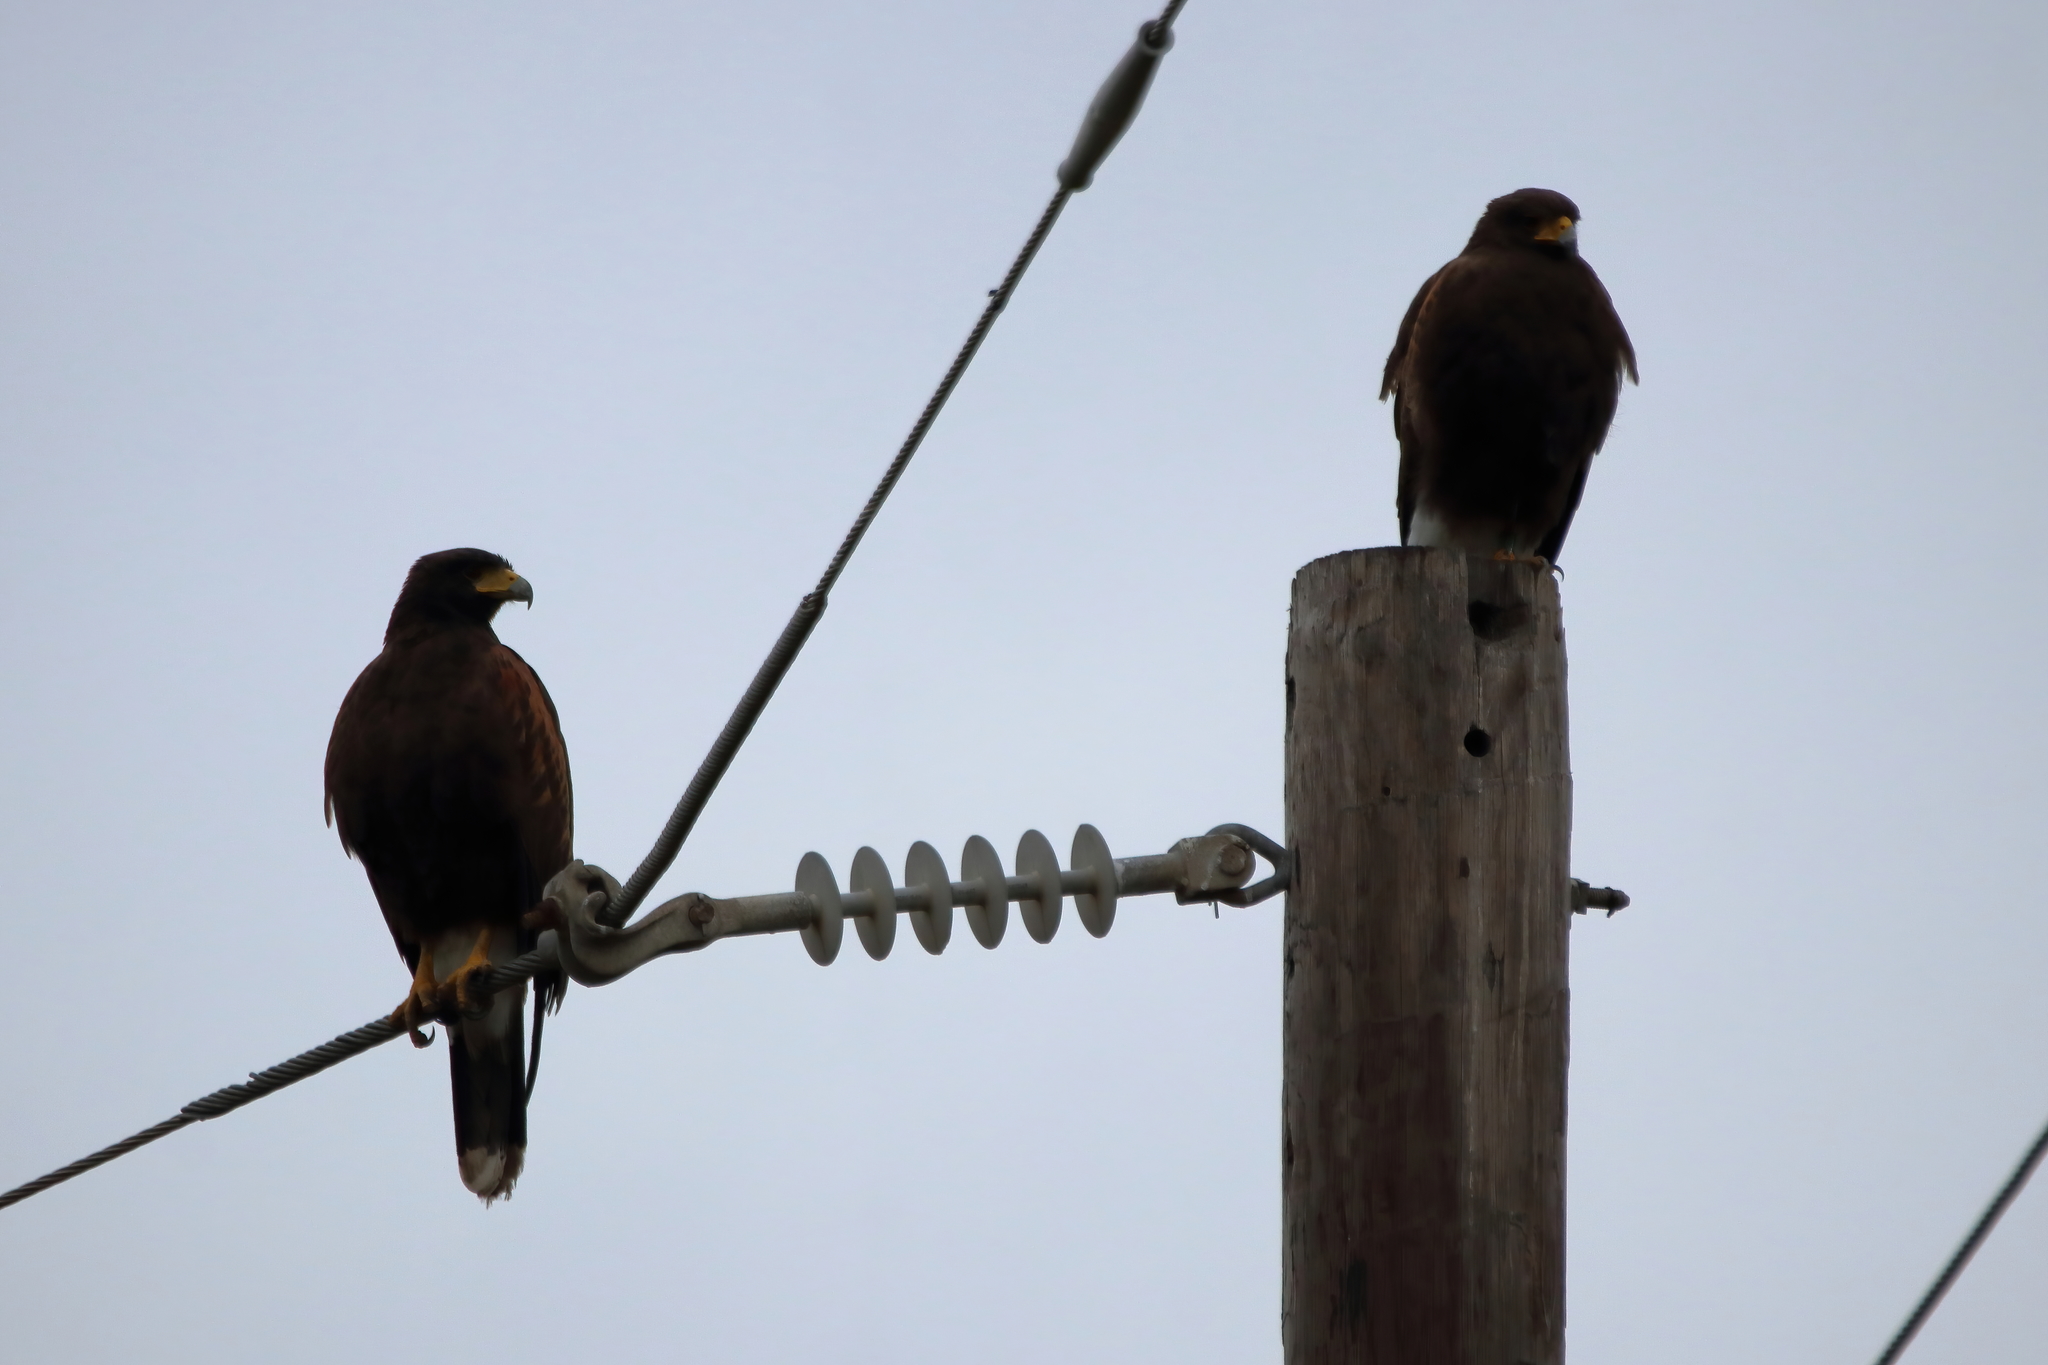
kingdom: Animalia
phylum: Chordata
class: Aves
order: Accipitriformes
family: Accipitridae
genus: Parabuteo
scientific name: Parabuteo unicinctus
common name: Harris's hawk
